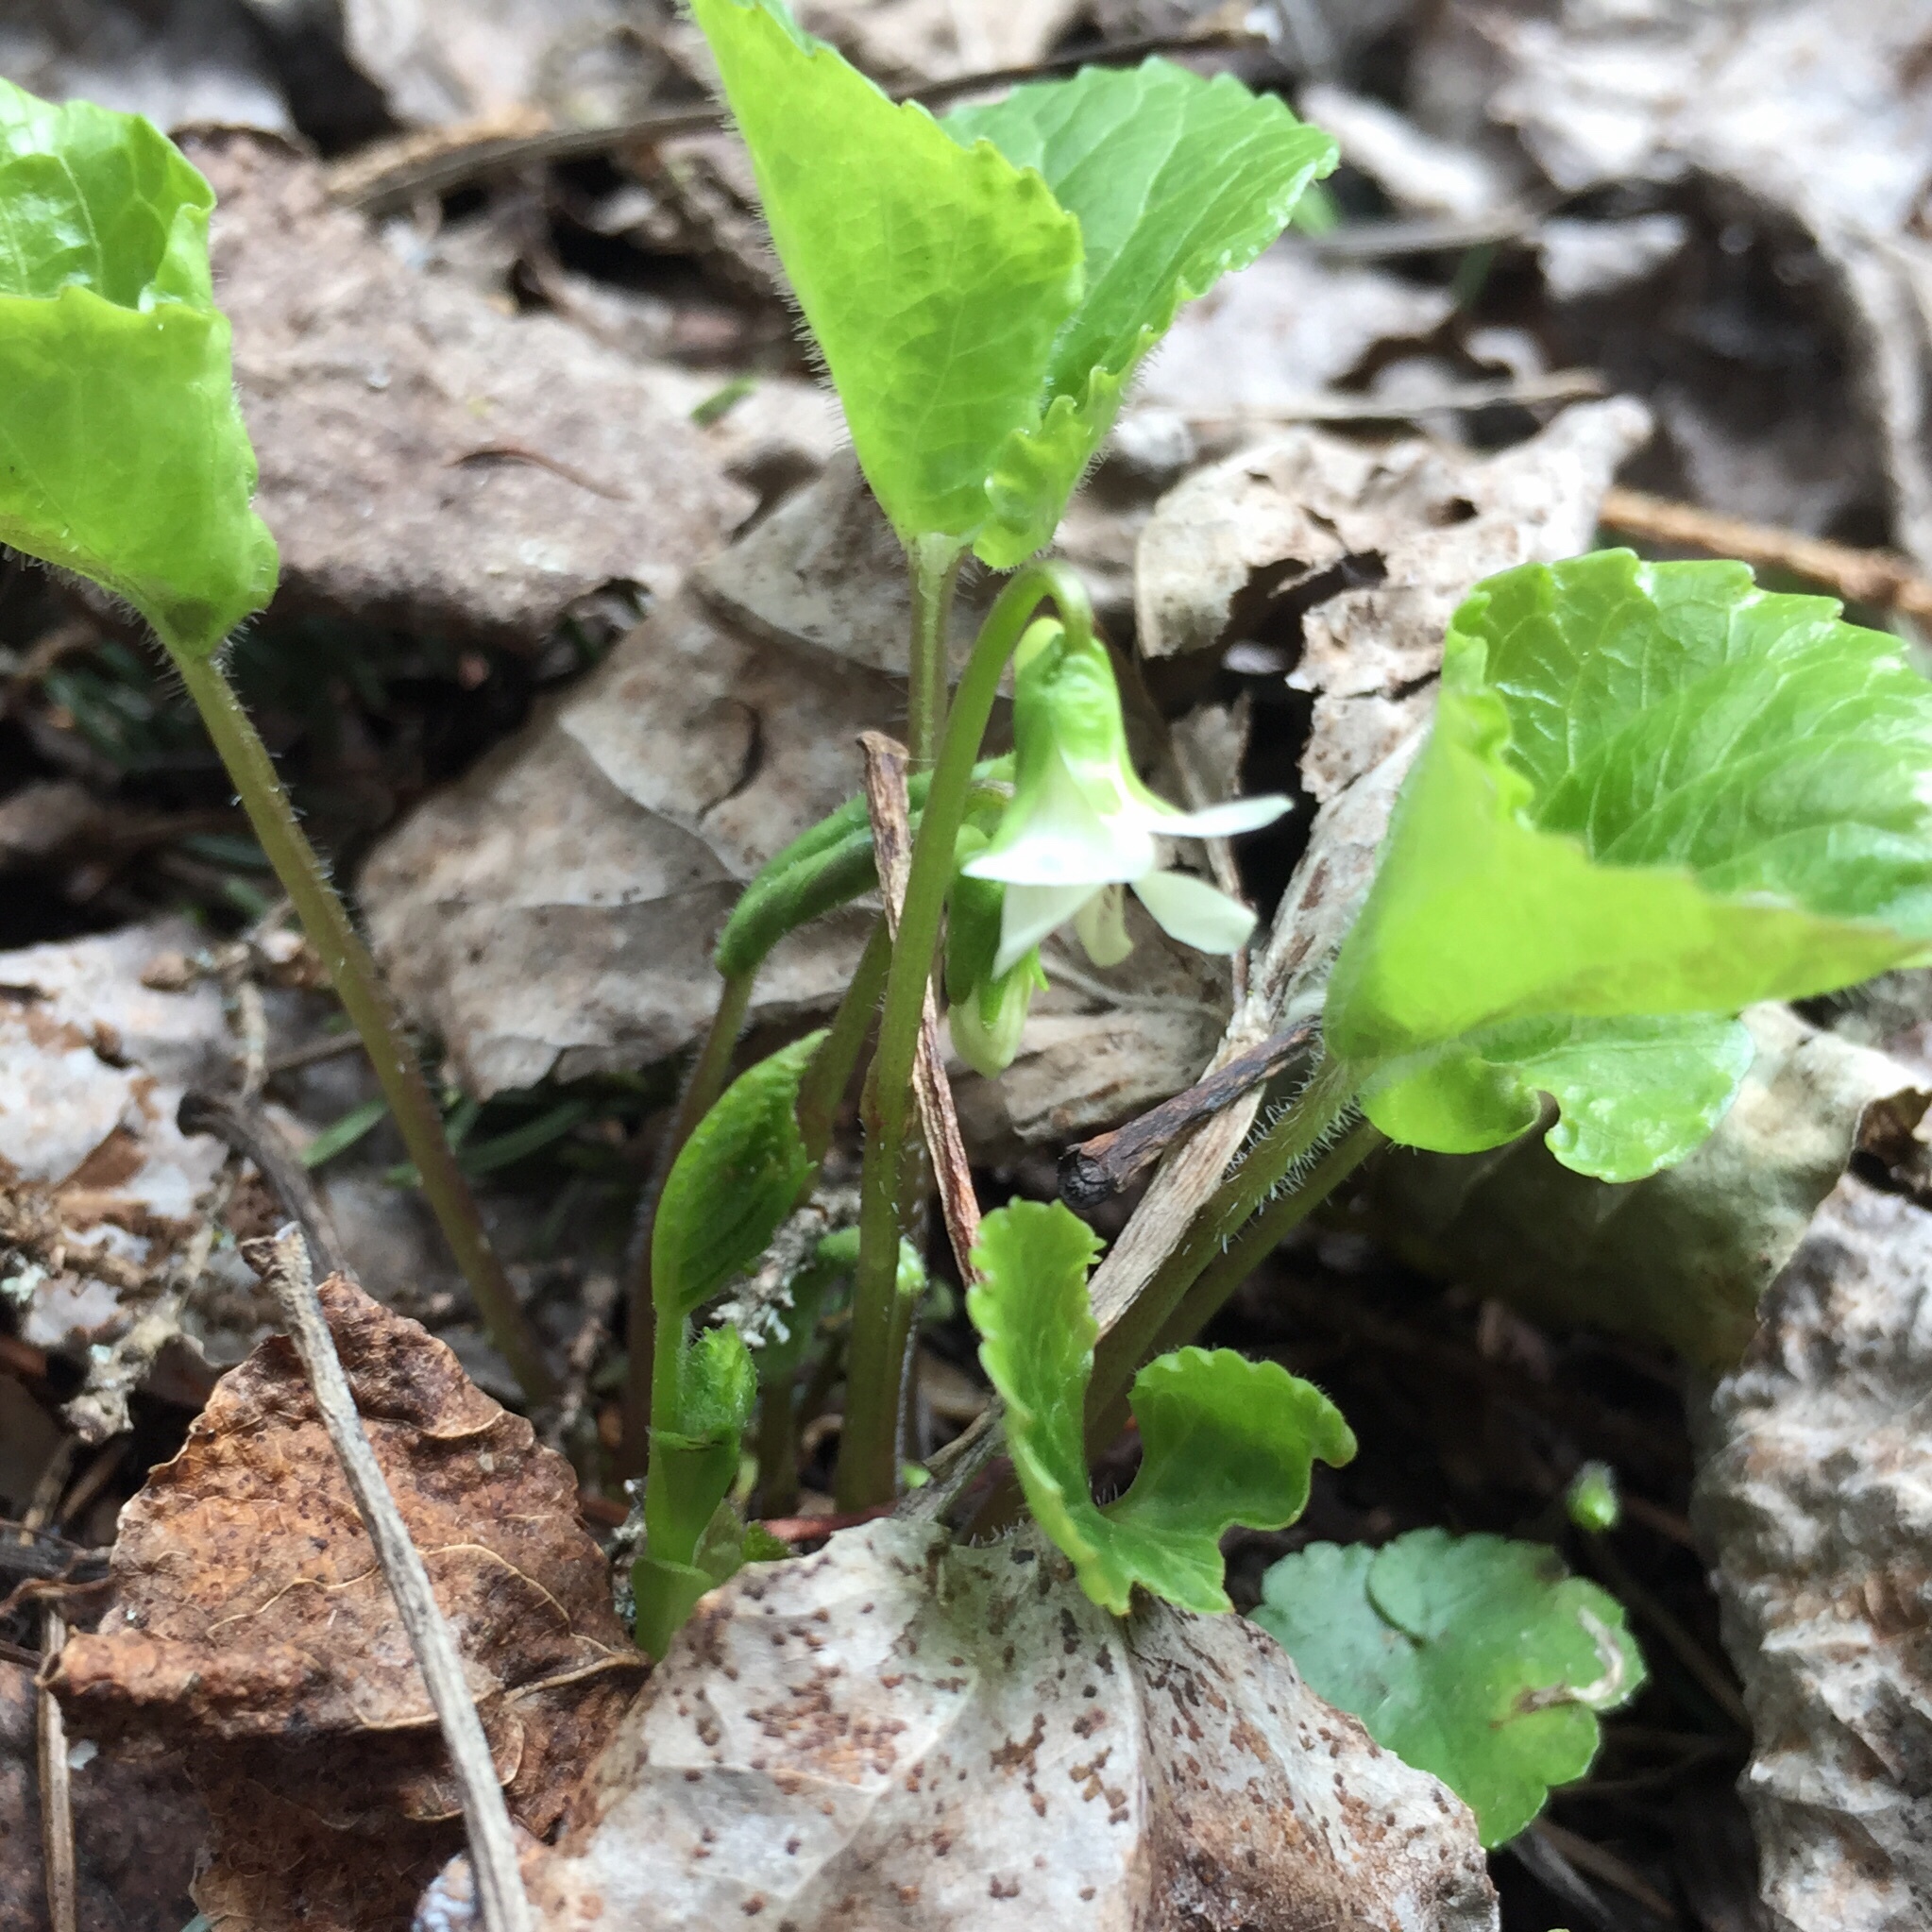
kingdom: Plantae
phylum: Tracheophyta
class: Magnoliopsida
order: Malpighiales
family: Violaceae
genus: Viola
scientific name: Viola renifolia
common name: Kidney-leaf violet
